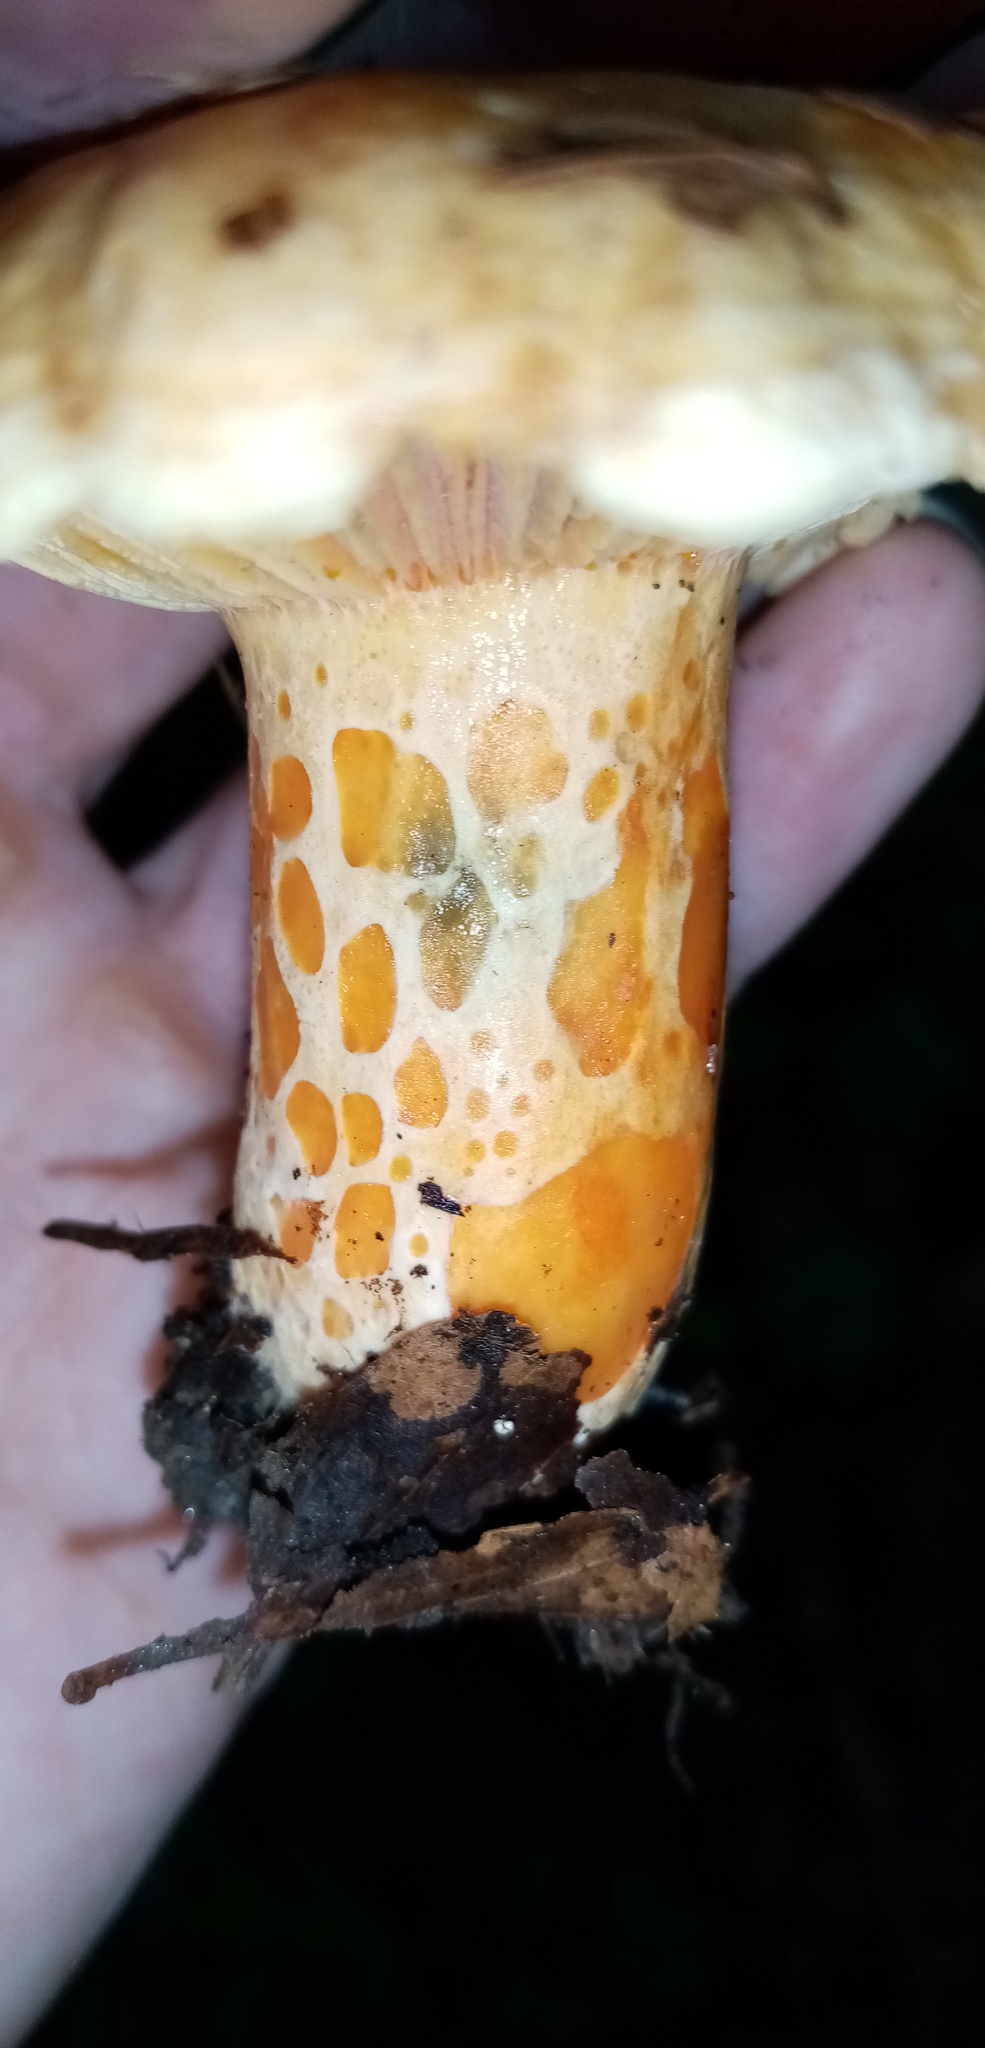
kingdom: Fungi
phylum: Basidiomycota
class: Agaricomycetes
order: Russulales
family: Russulaceae
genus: Lactarius
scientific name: Lactarius deliciosus
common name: Saffron milk-cap
